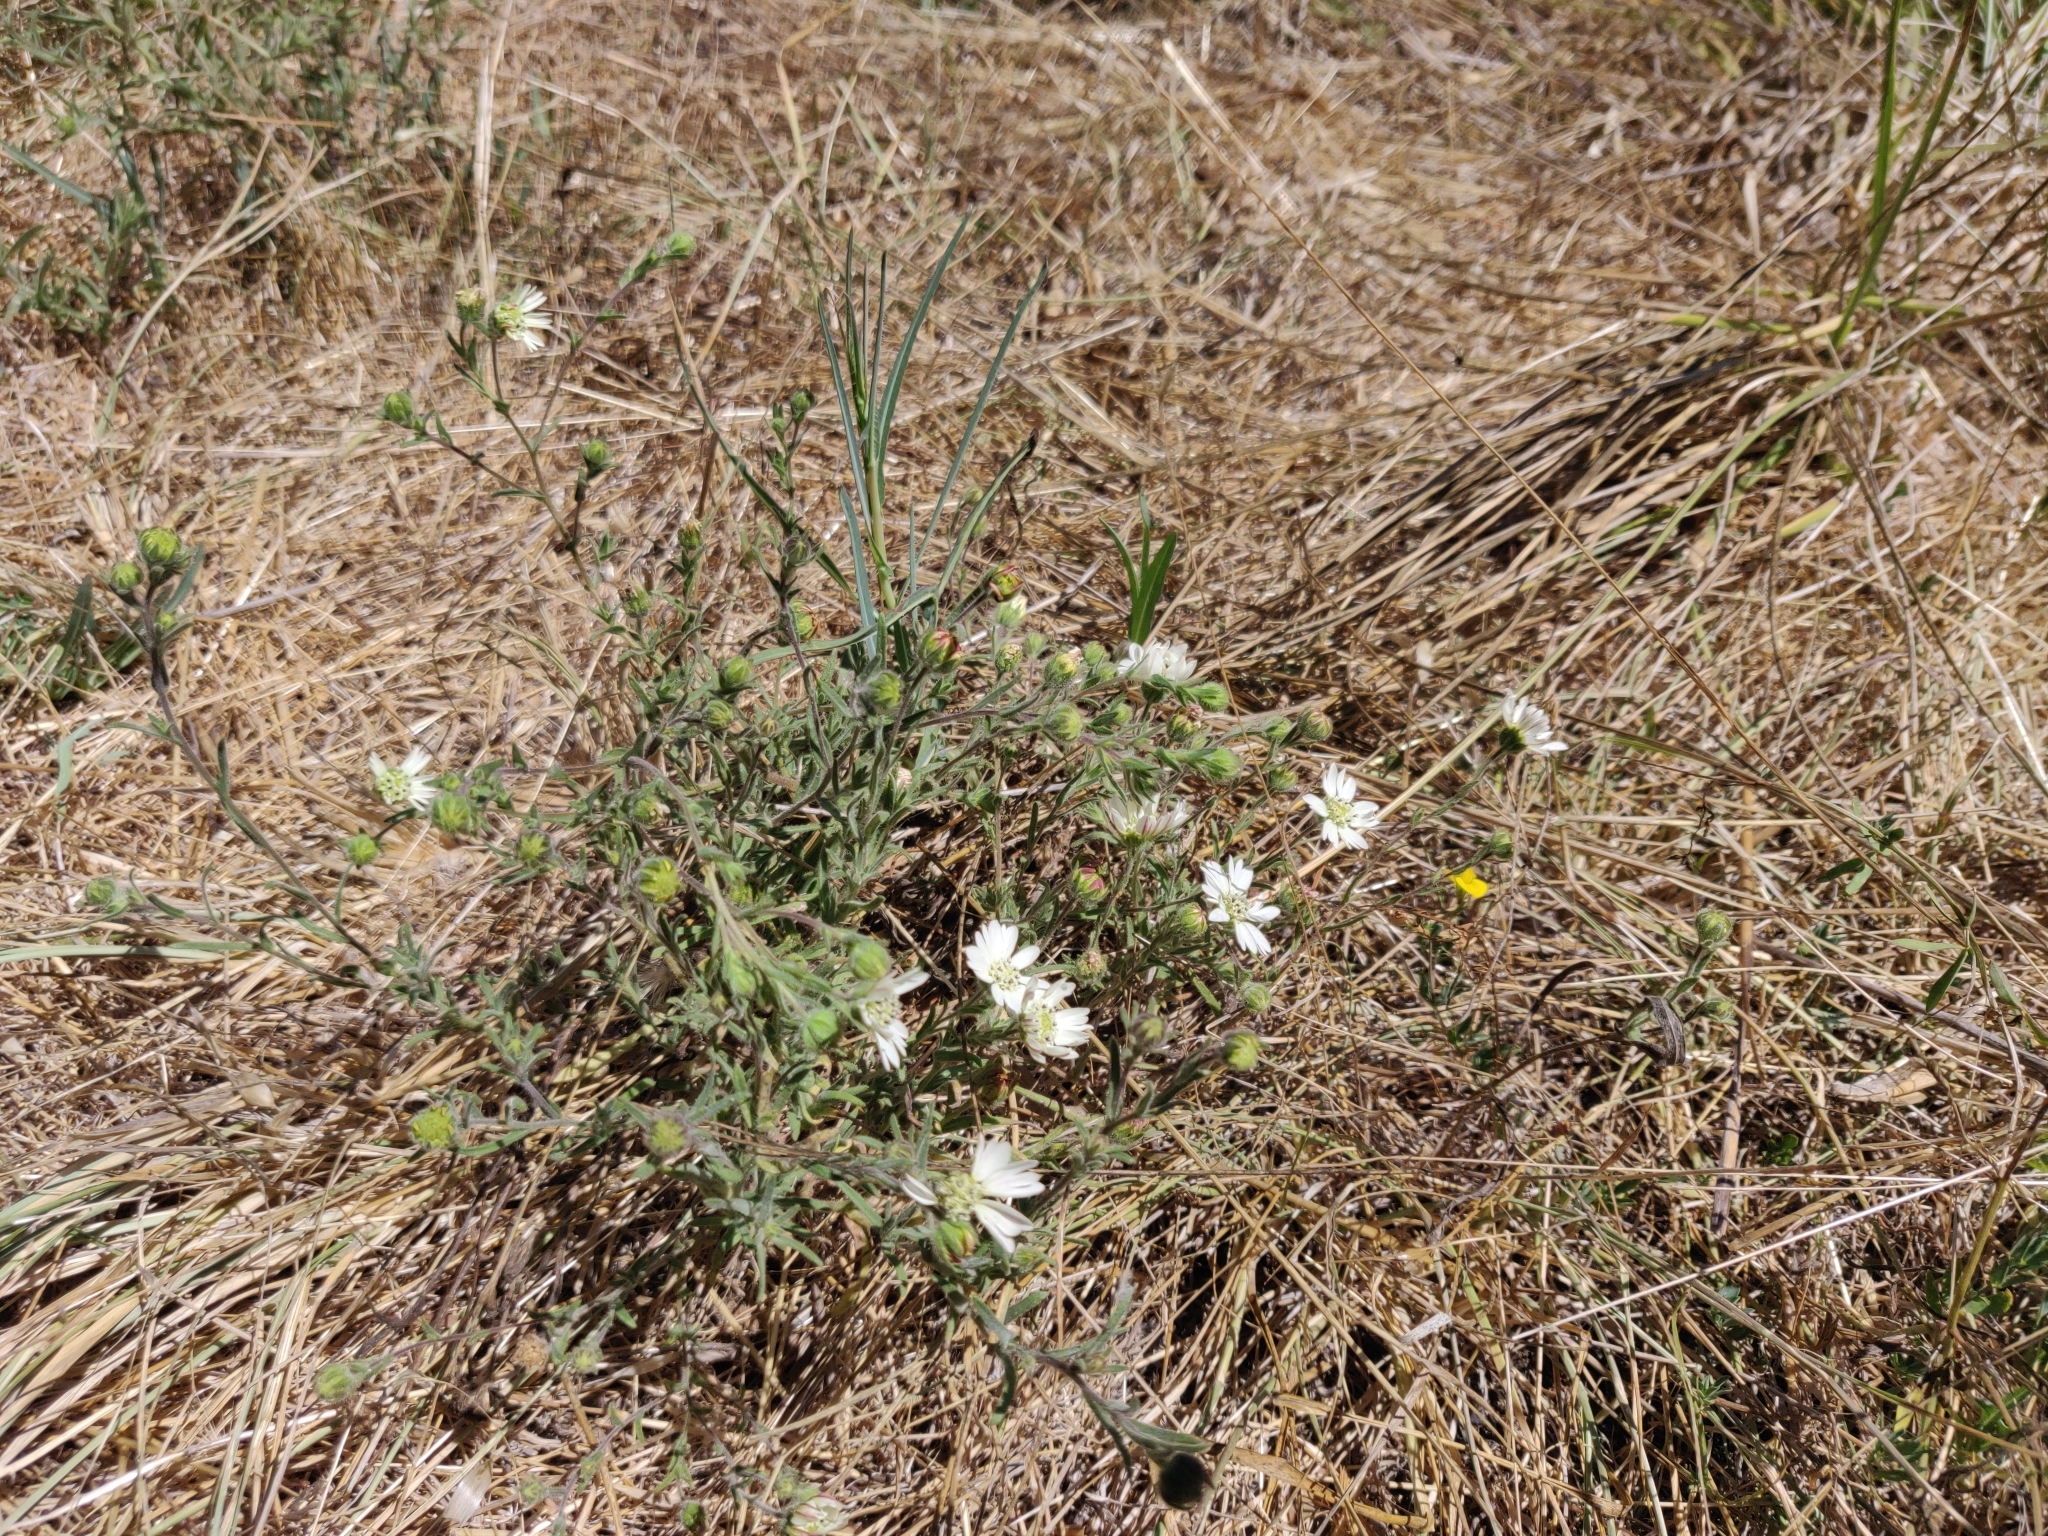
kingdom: Plantae
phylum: Tracheophyta
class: Magnoliopsida
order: Asterales
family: Asteraceae
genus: Hemizonia
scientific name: Hemizonia congesta
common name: Hayfield tarweed
